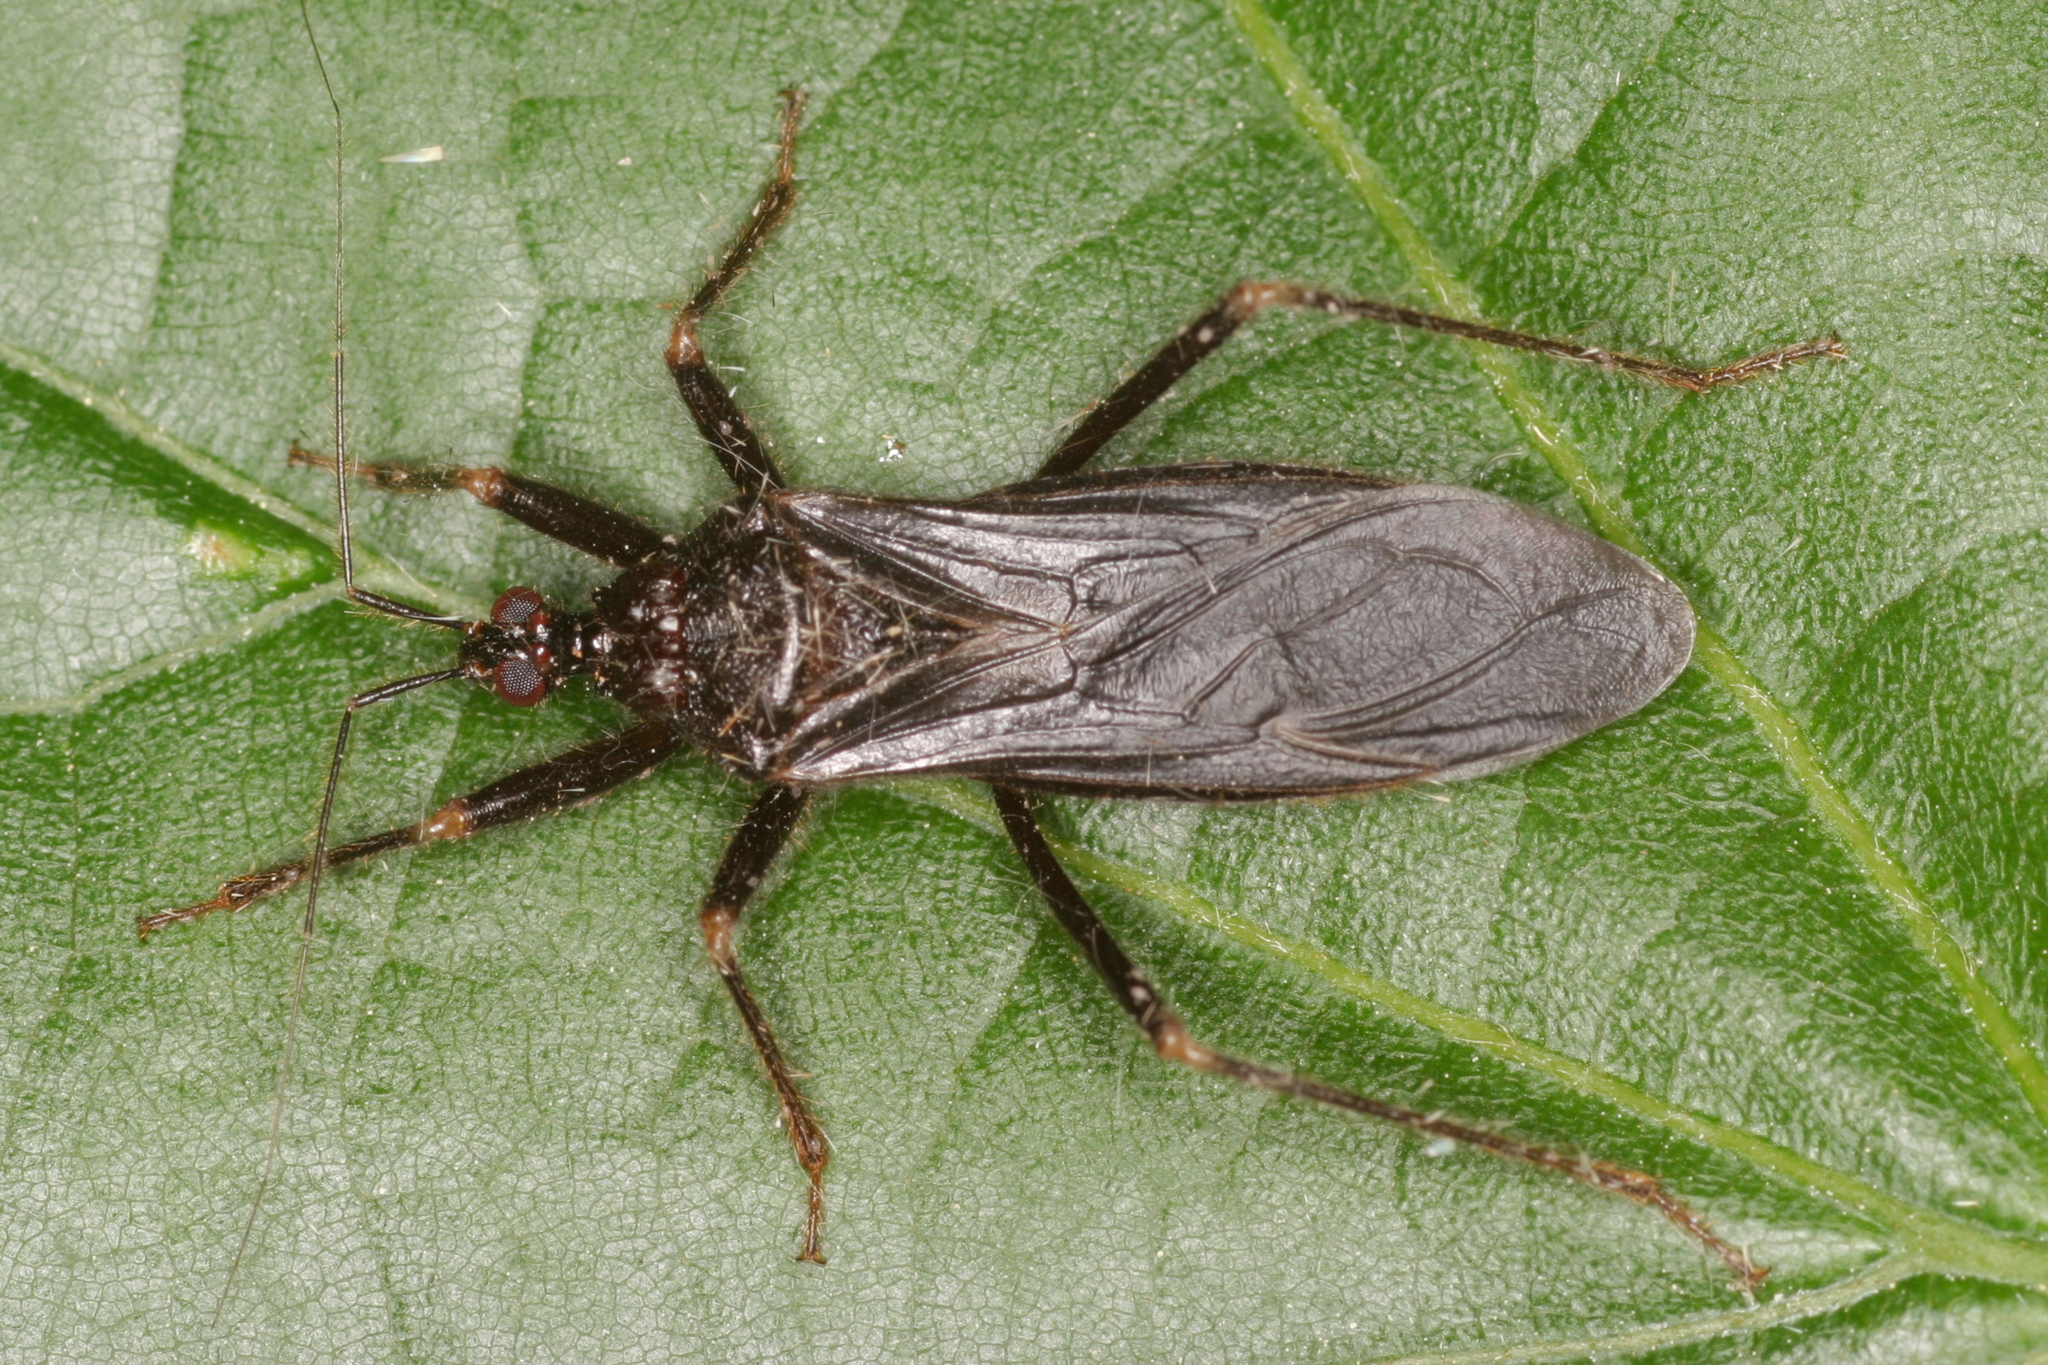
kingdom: Animalia
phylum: Arthropoda
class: Insecta
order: Hemiptera
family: Reduviidae
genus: Reduvius
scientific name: Reduvius personatus
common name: Masked hunter
